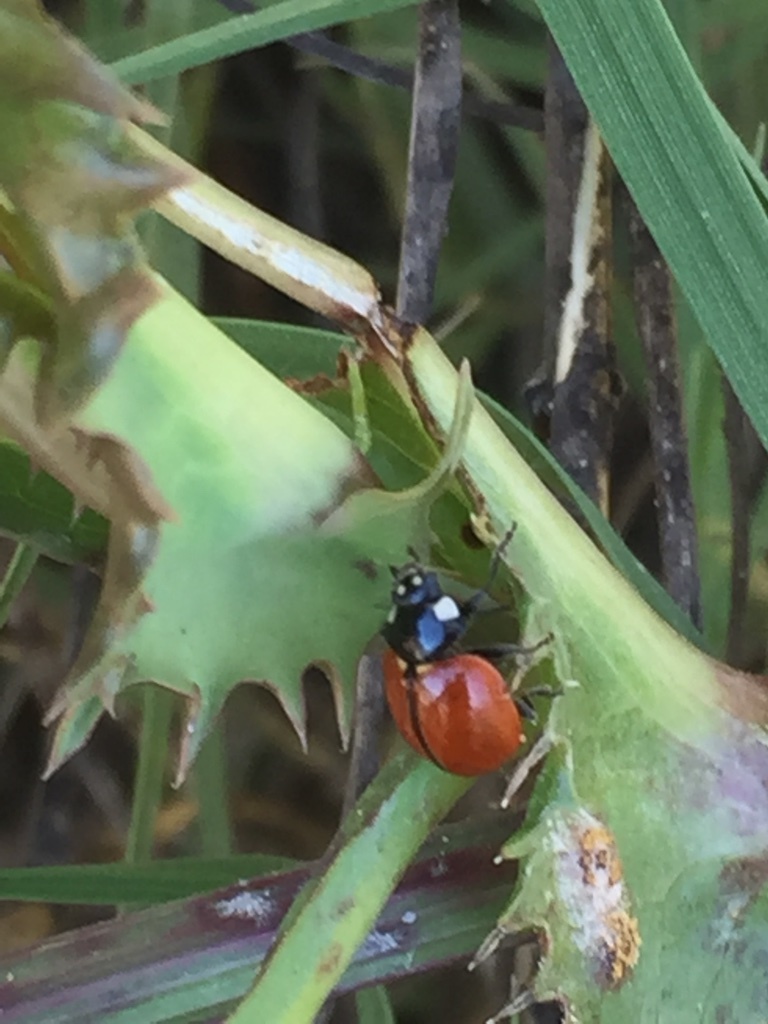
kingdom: Animalia
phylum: Arthropoda
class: Insecta
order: Coleoptera
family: Coccinellidae
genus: Coccinella
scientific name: Coccinella californica
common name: Lady beetle
